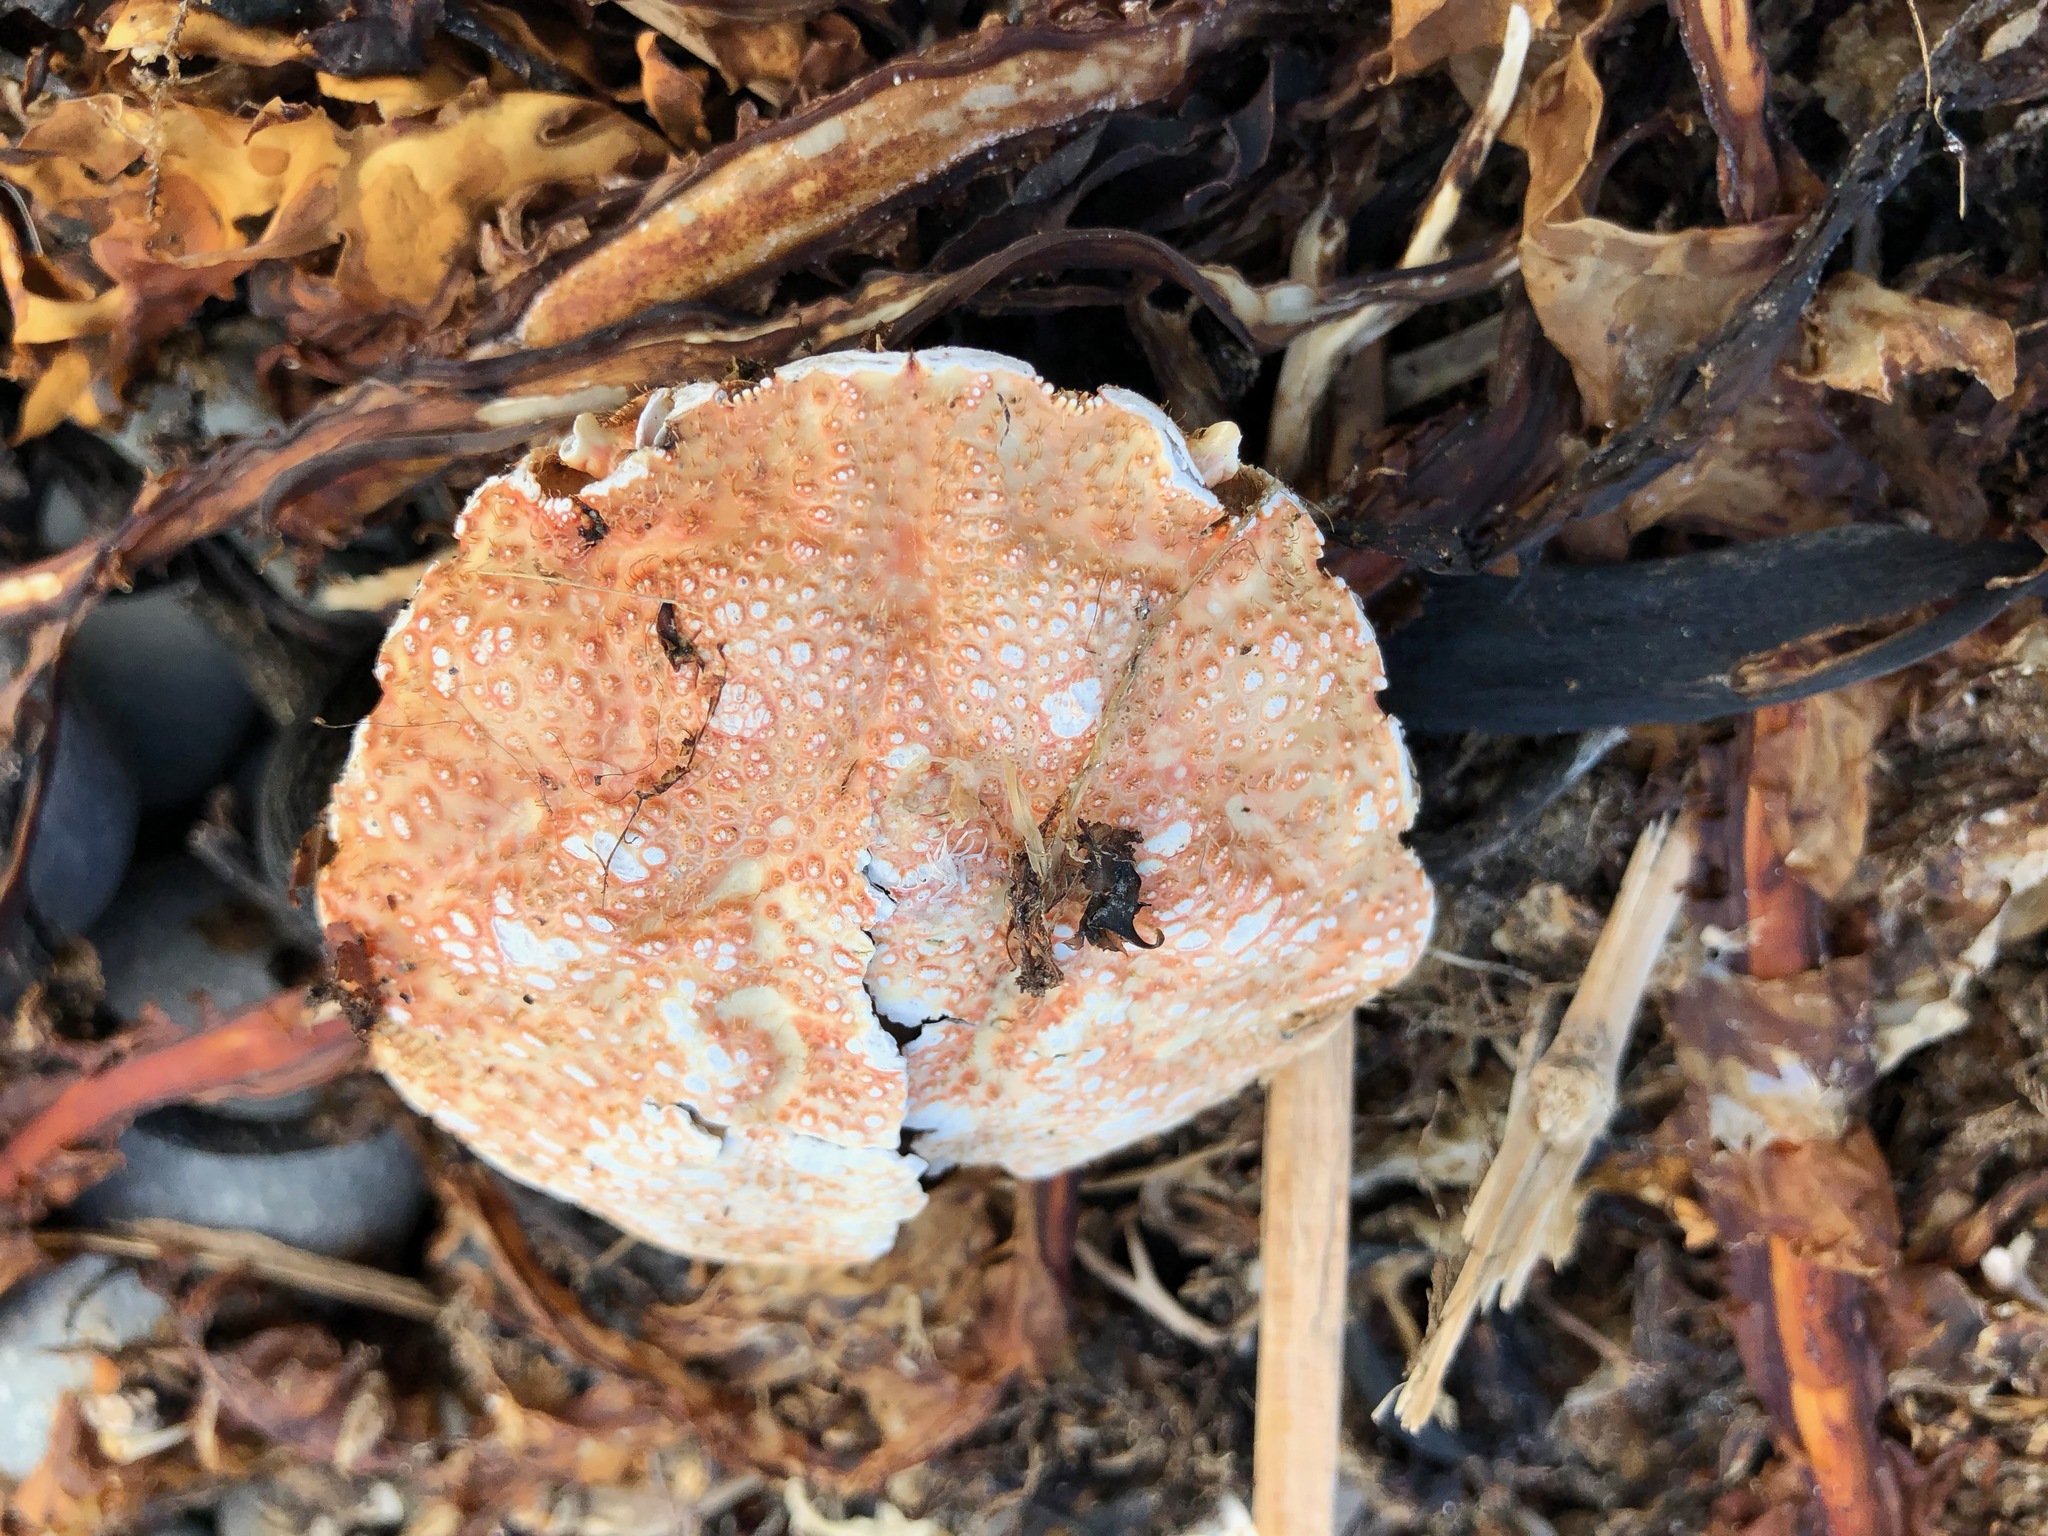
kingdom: Animalia
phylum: Arthropoda
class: Malacostraca
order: Decapoda
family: Cheiragonidae
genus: Telmessus
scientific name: Telmessus cheiragonus
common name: Helmet crab
